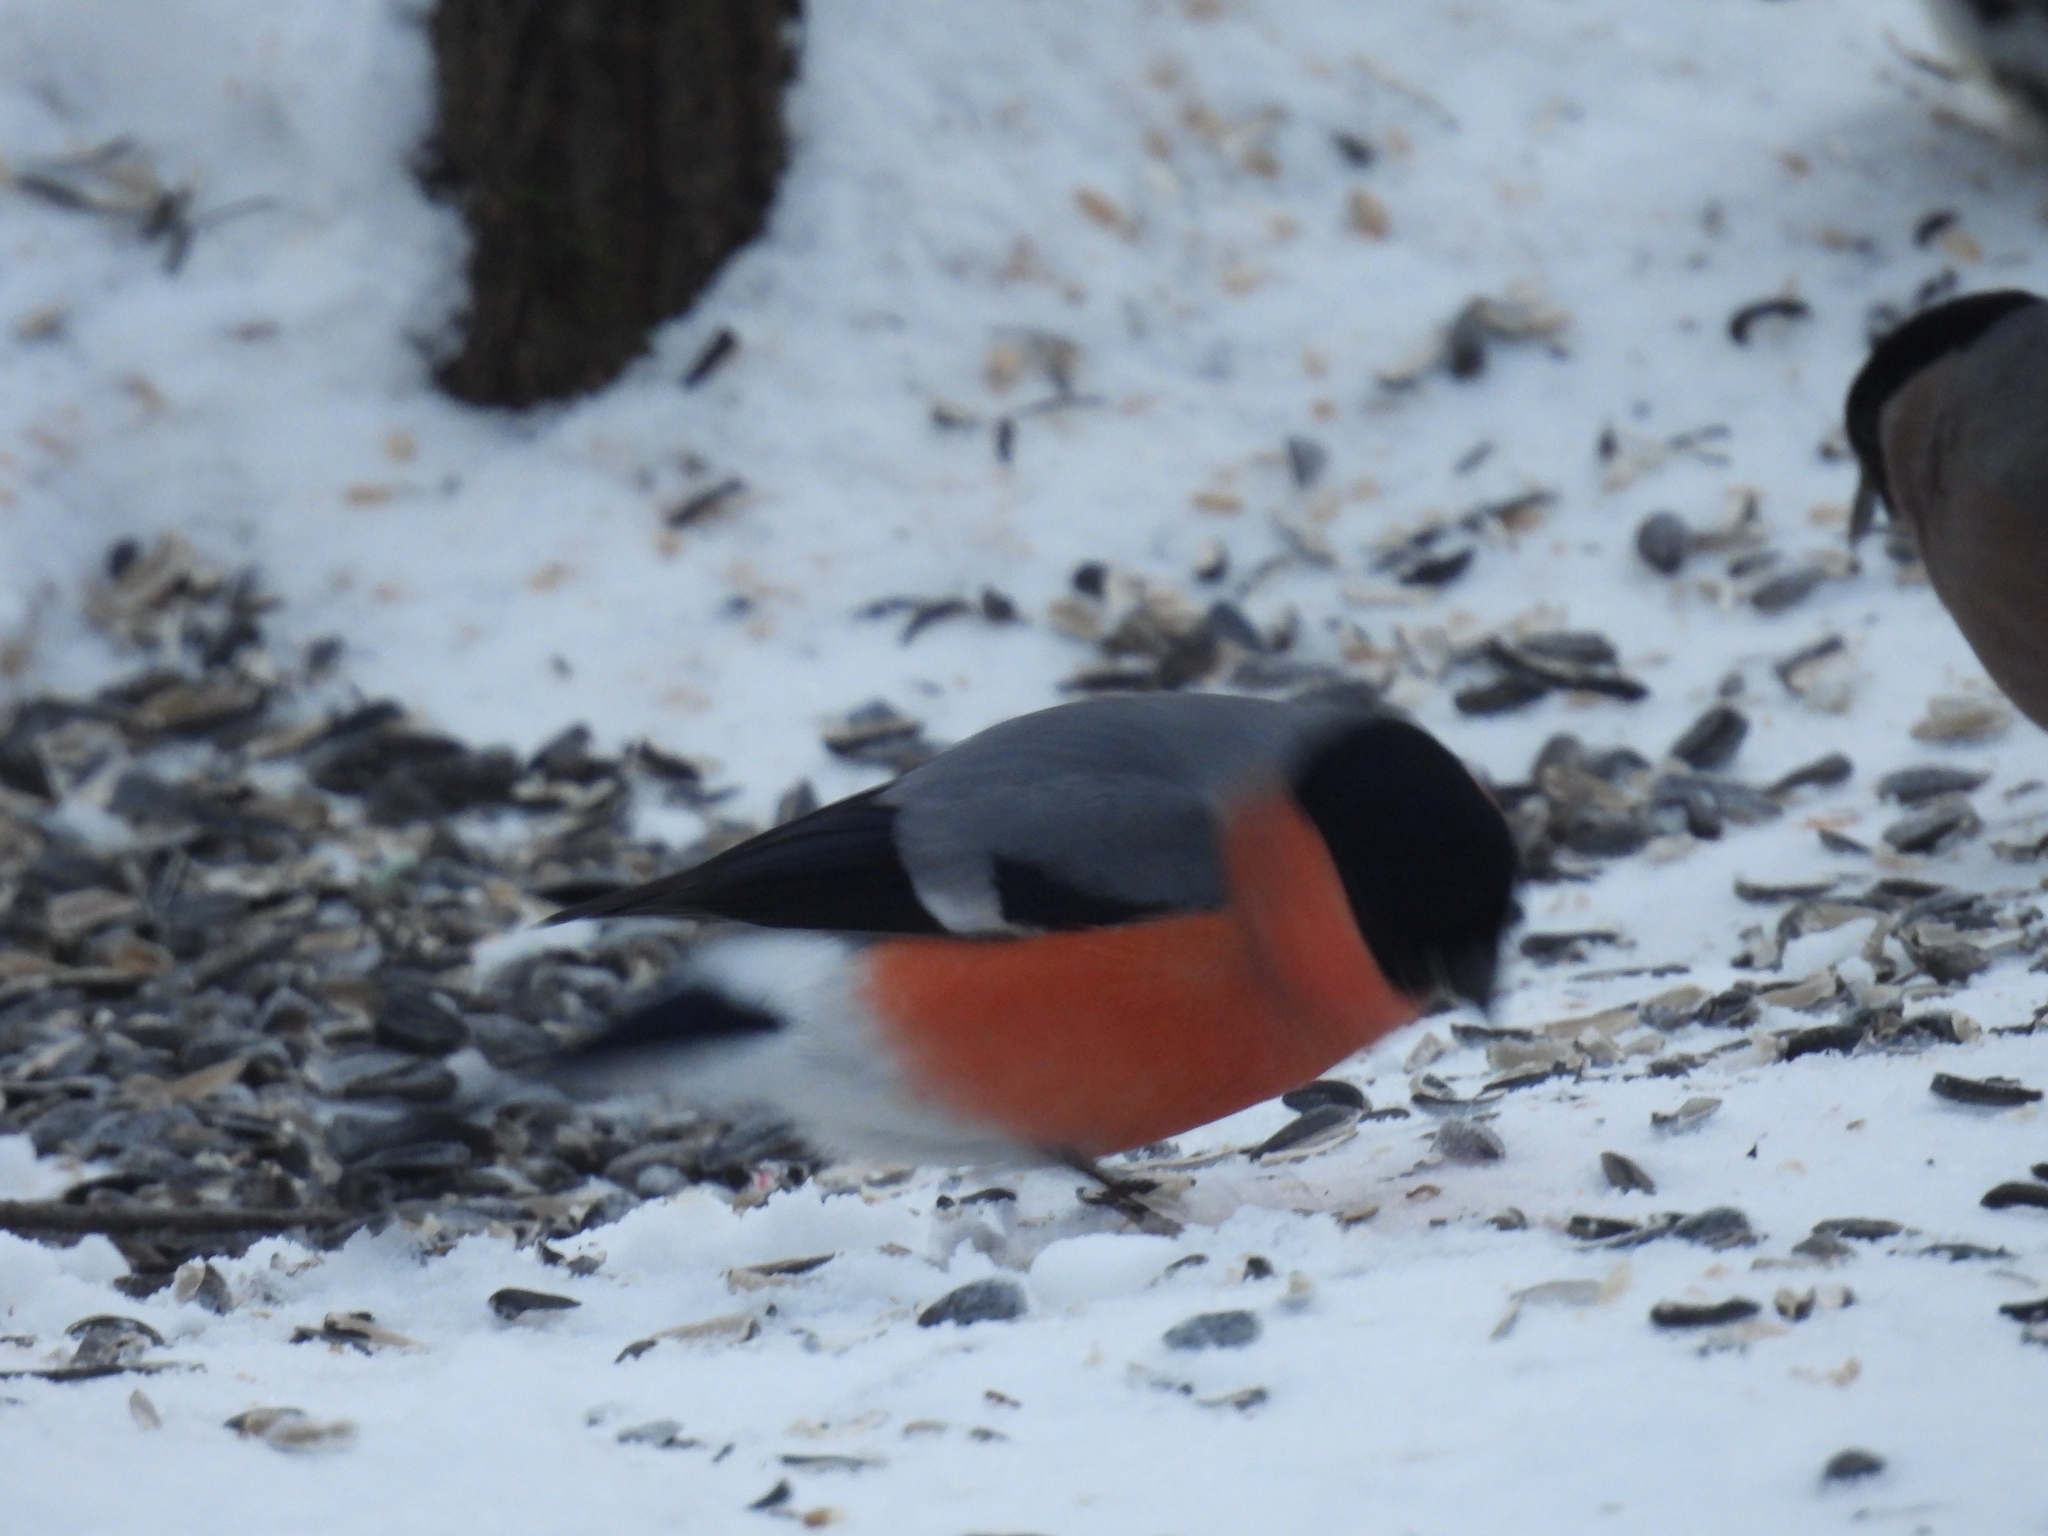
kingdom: Animalia
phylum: Chordata
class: Aves
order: Passeriformes
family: Fringillidae
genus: Pyrrhula
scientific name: Pyrrhula pyrrhula
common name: Eurasian bullfinch
